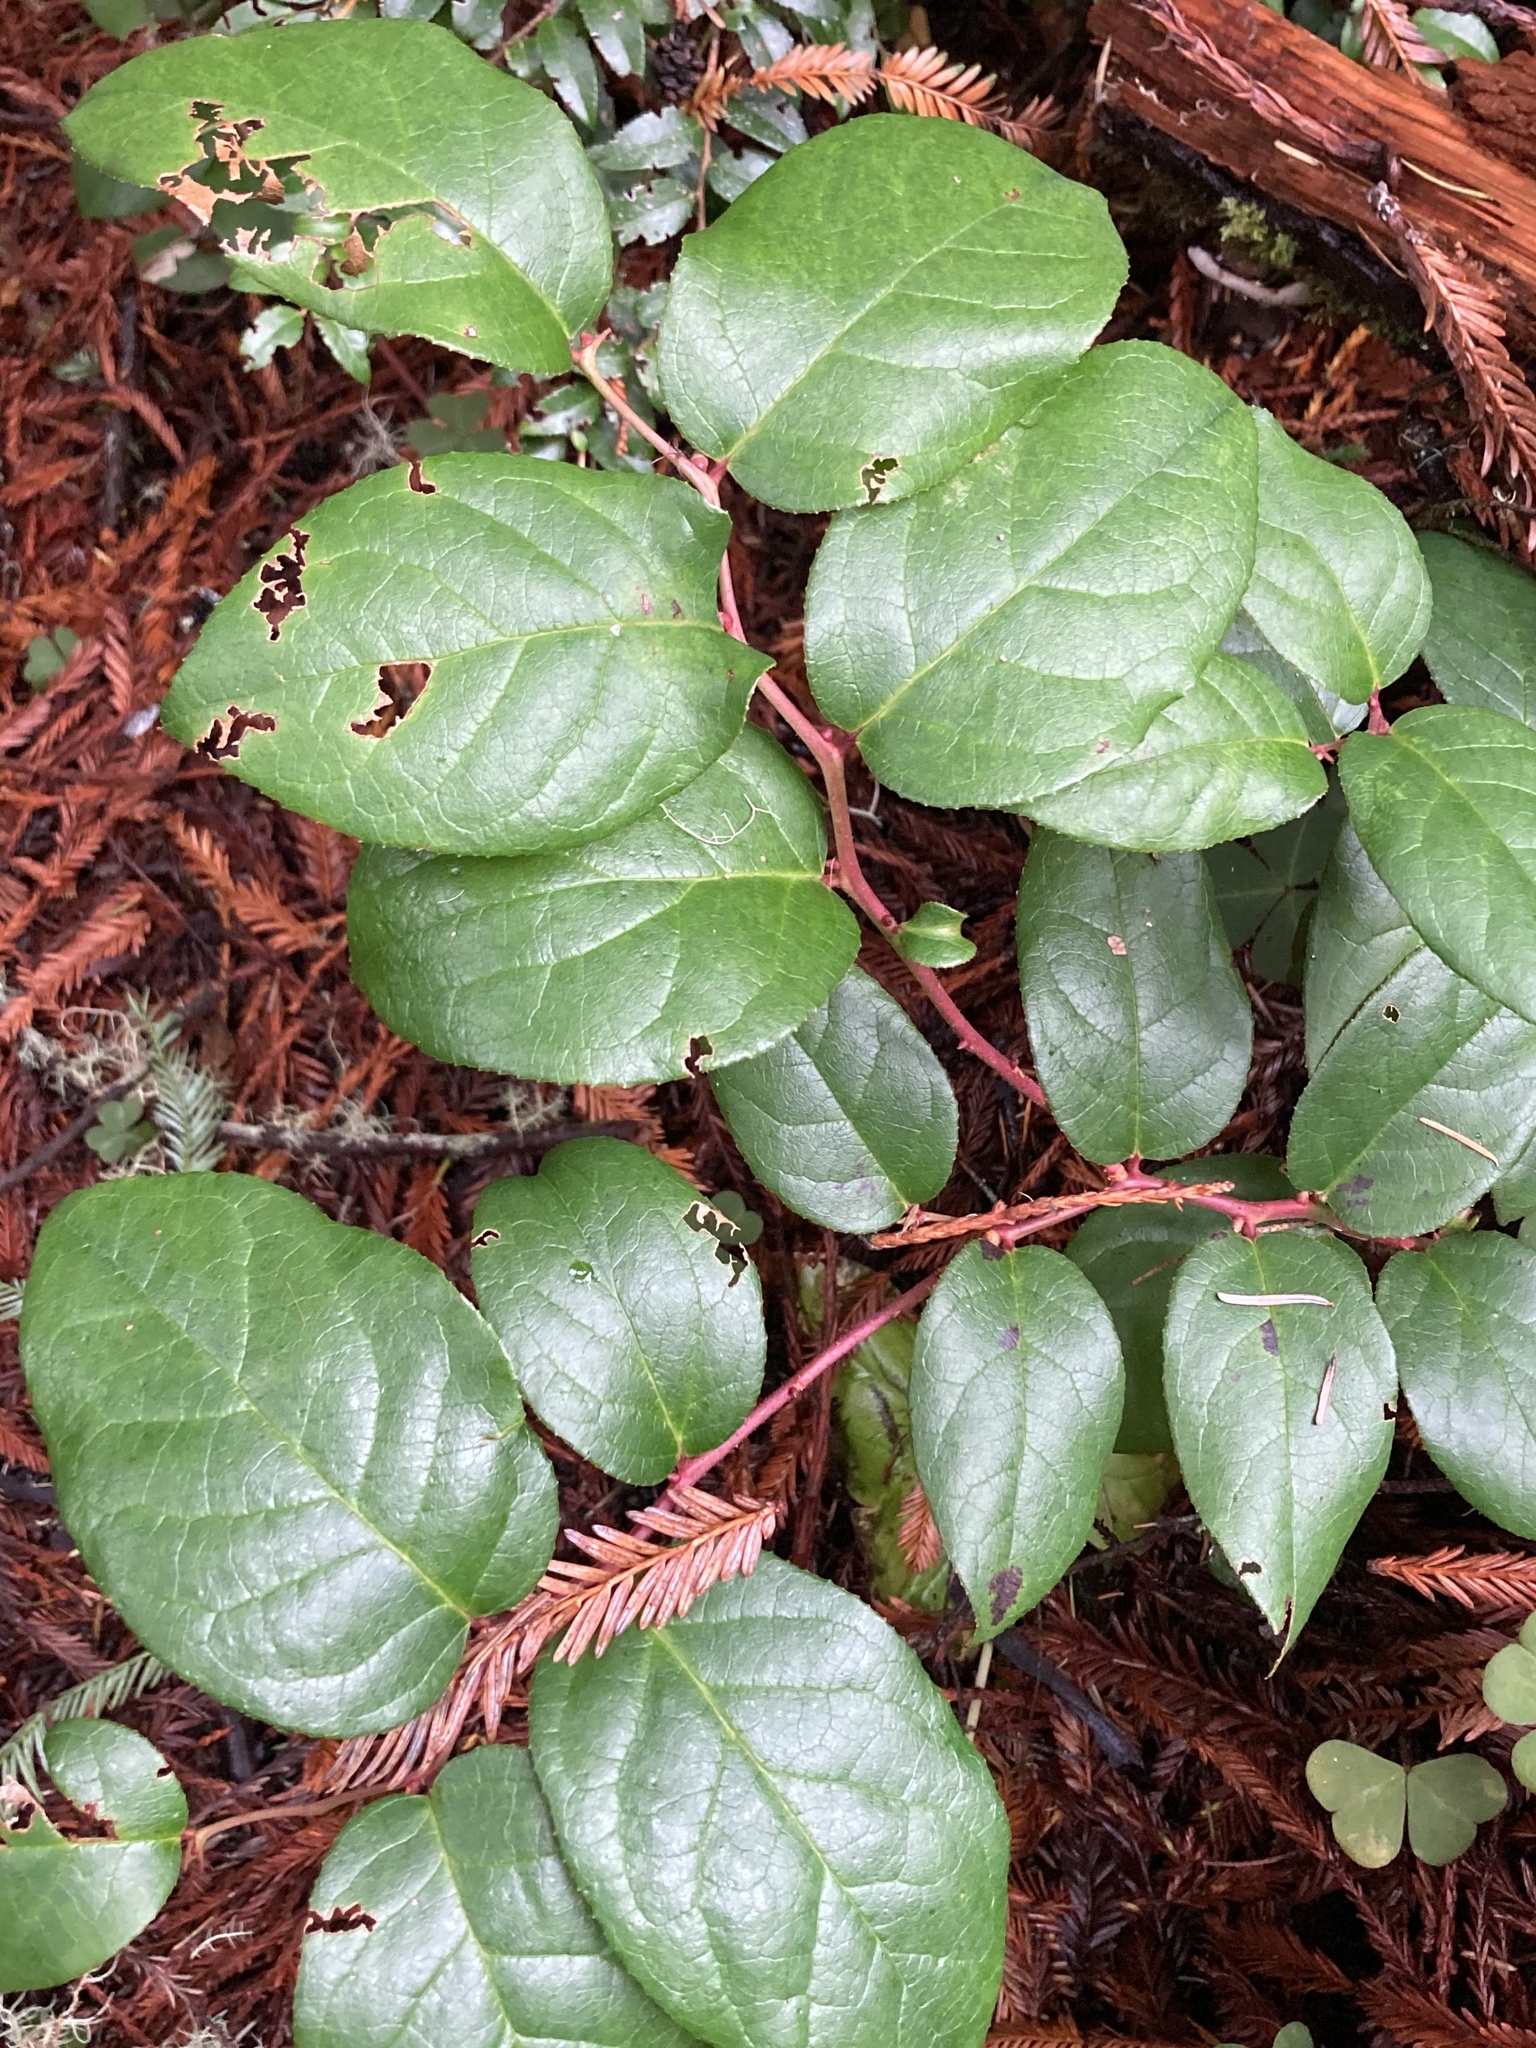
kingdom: Plantae
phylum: Tracheophyta
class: Magnoliopsida
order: Ericales
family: Ericaceae
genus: Gaultheria
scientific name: Gaultheria shallon
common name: Shallon
